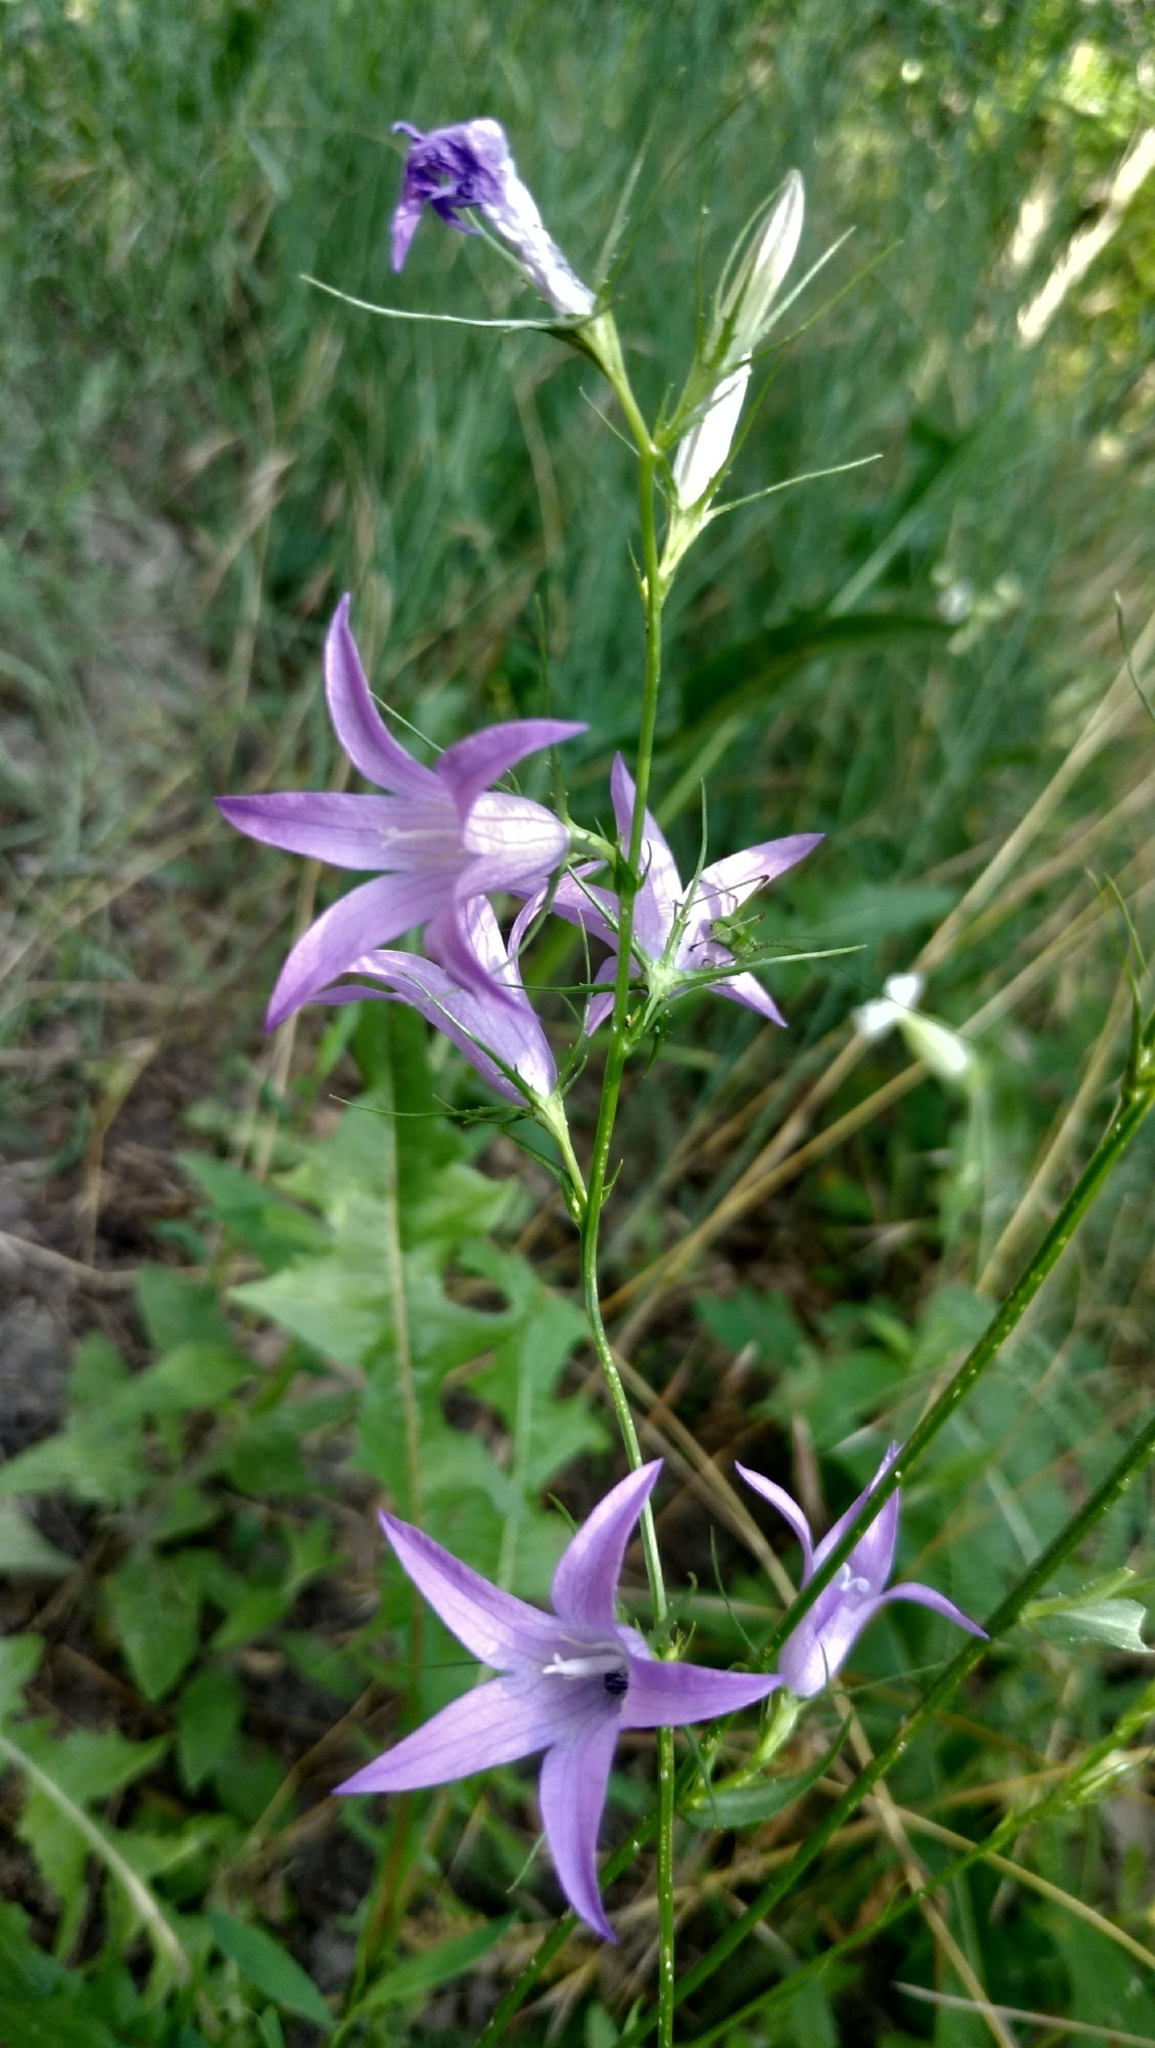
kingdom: Plantae
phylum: Tracheophyta
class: Magnoliopsida
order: Asterales
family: Campanulaceae
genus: Campanula
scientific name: Campanula rapunculus
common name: Rampion bellflower
